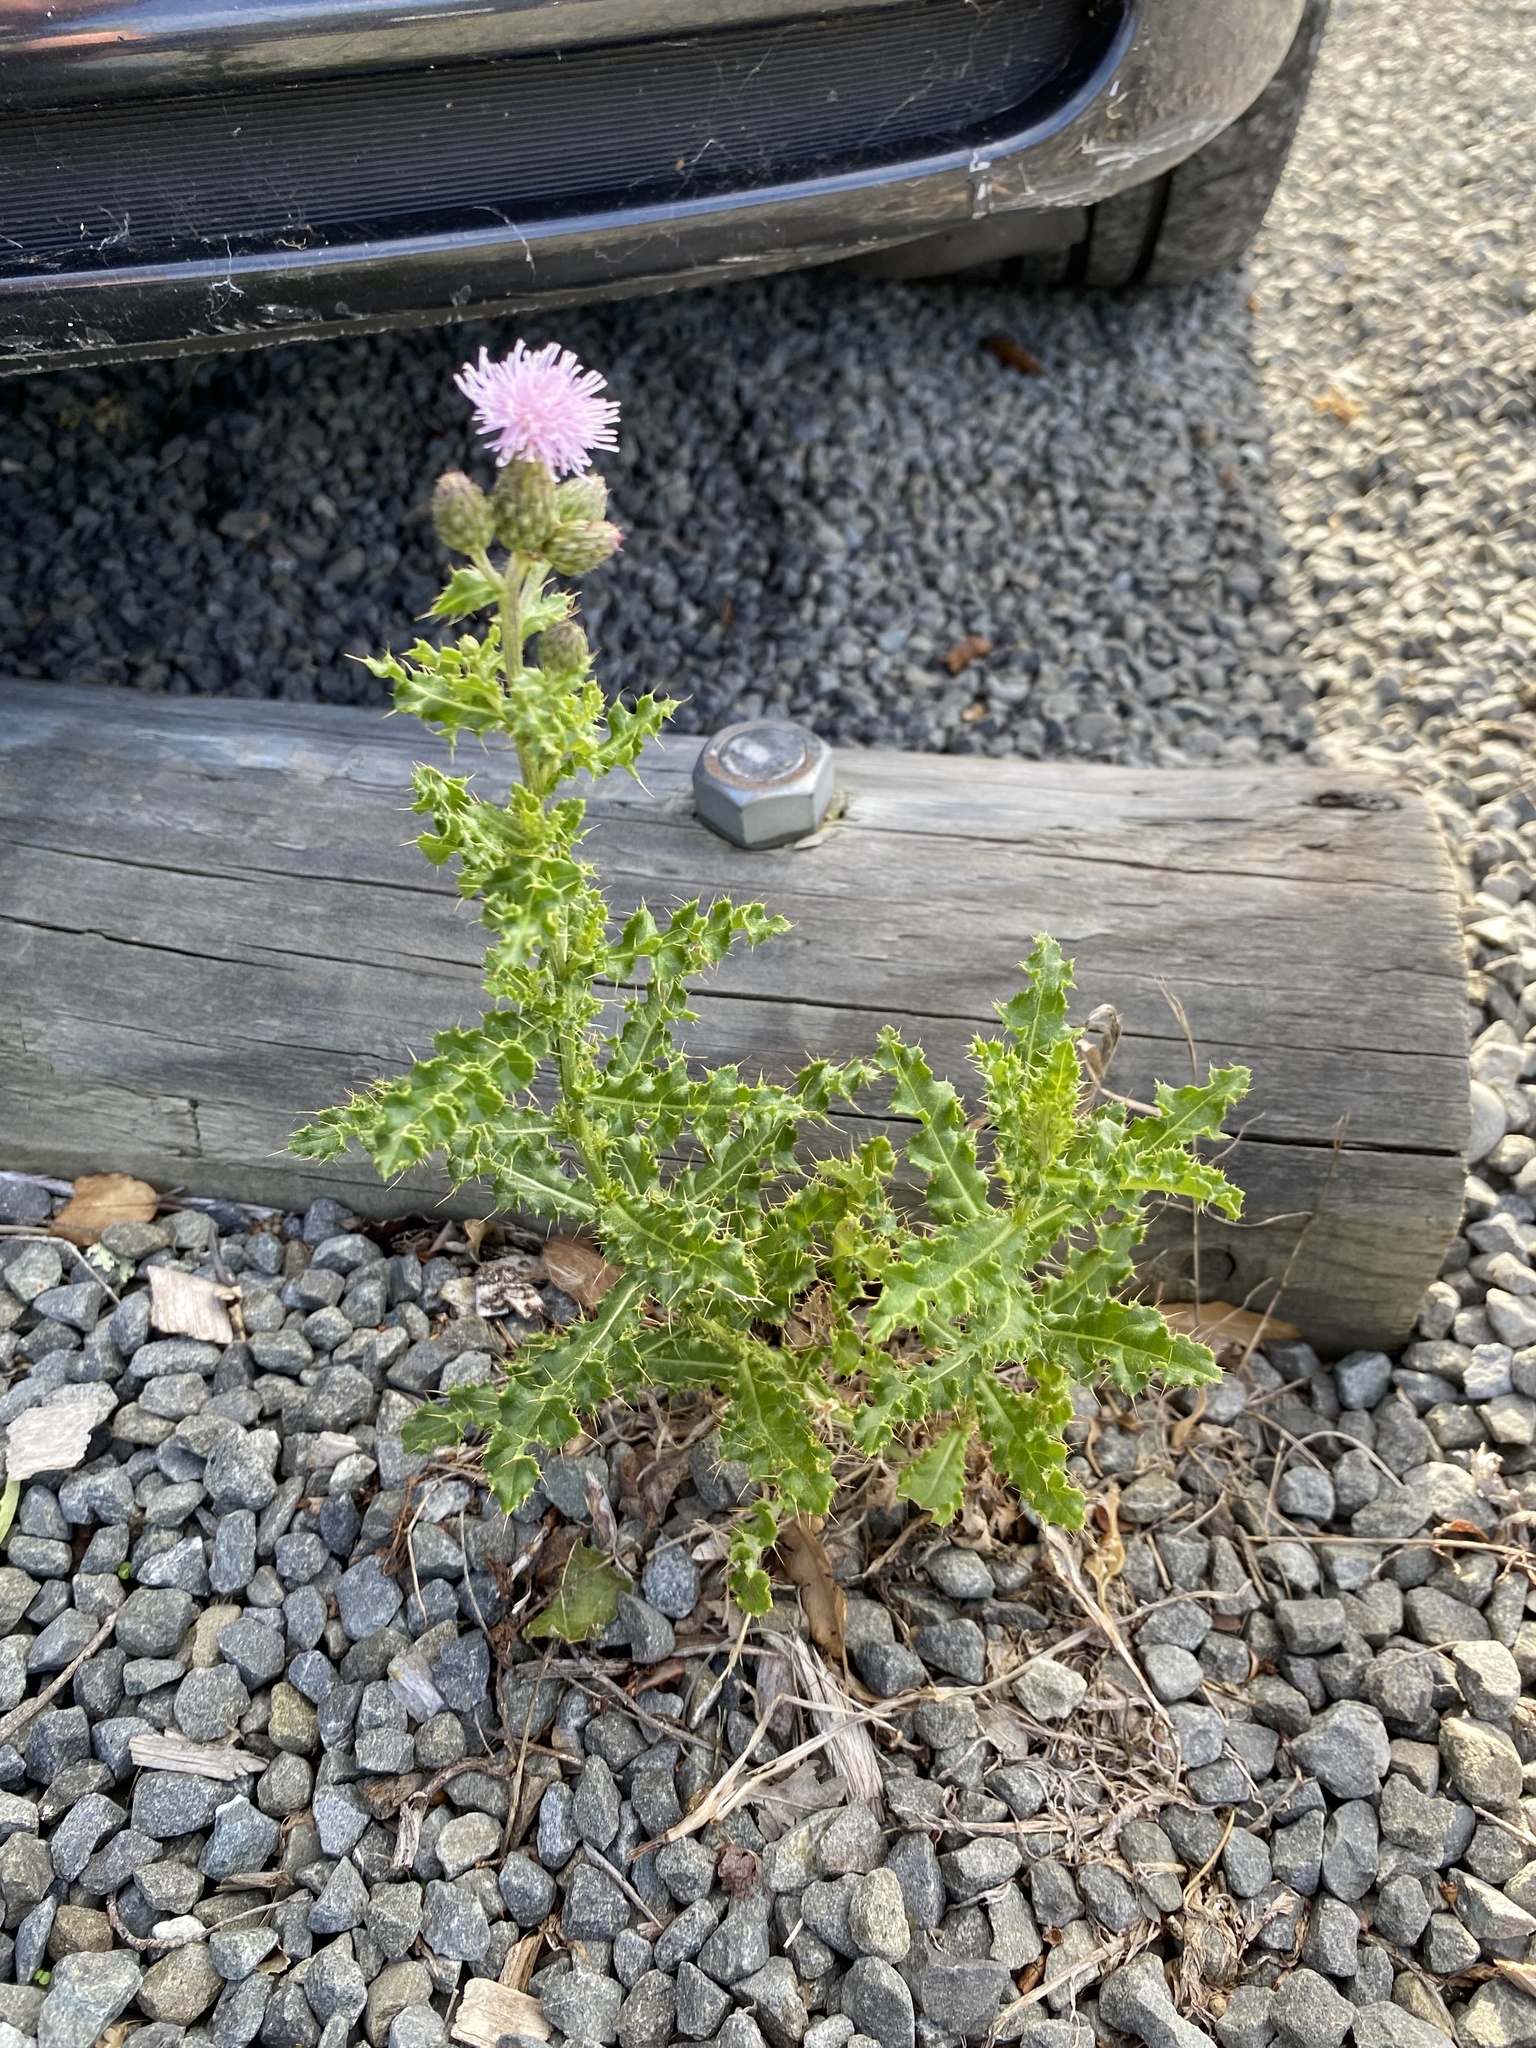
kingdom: Plantae
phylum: Tracheophyta
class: Magnoliopsida
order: Asterales
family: Asteraceae
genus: Cirsium
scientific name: Cirsium arvense
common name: Creeping thistle
